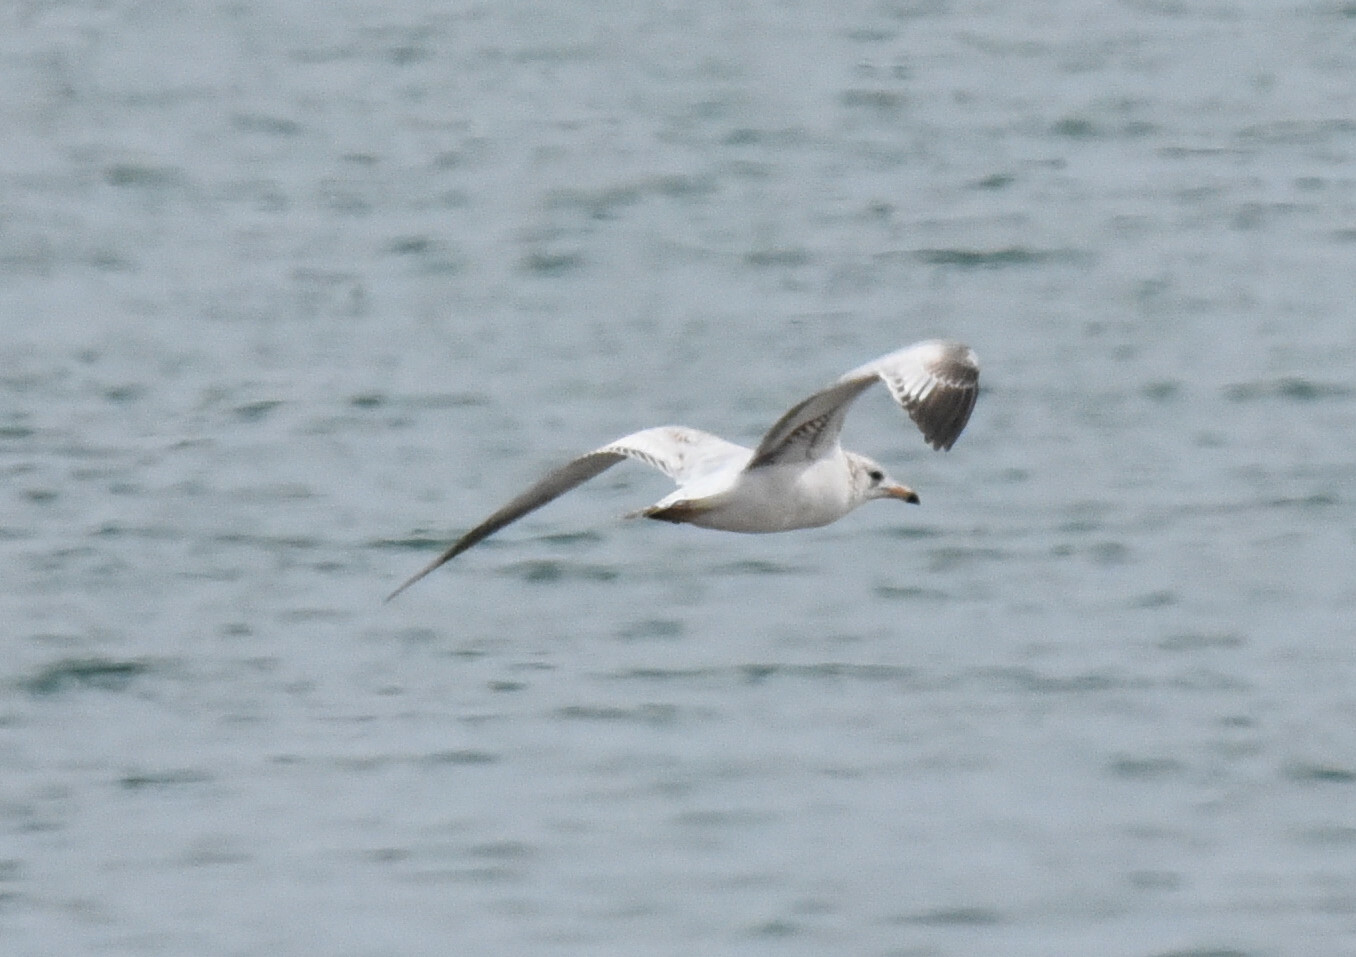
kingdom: Animalia
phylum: Chordata
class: Aves
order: Charadriiformes
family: Laridae
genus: Larus
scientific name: Larus delawarensis
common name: Ring-billed gull
